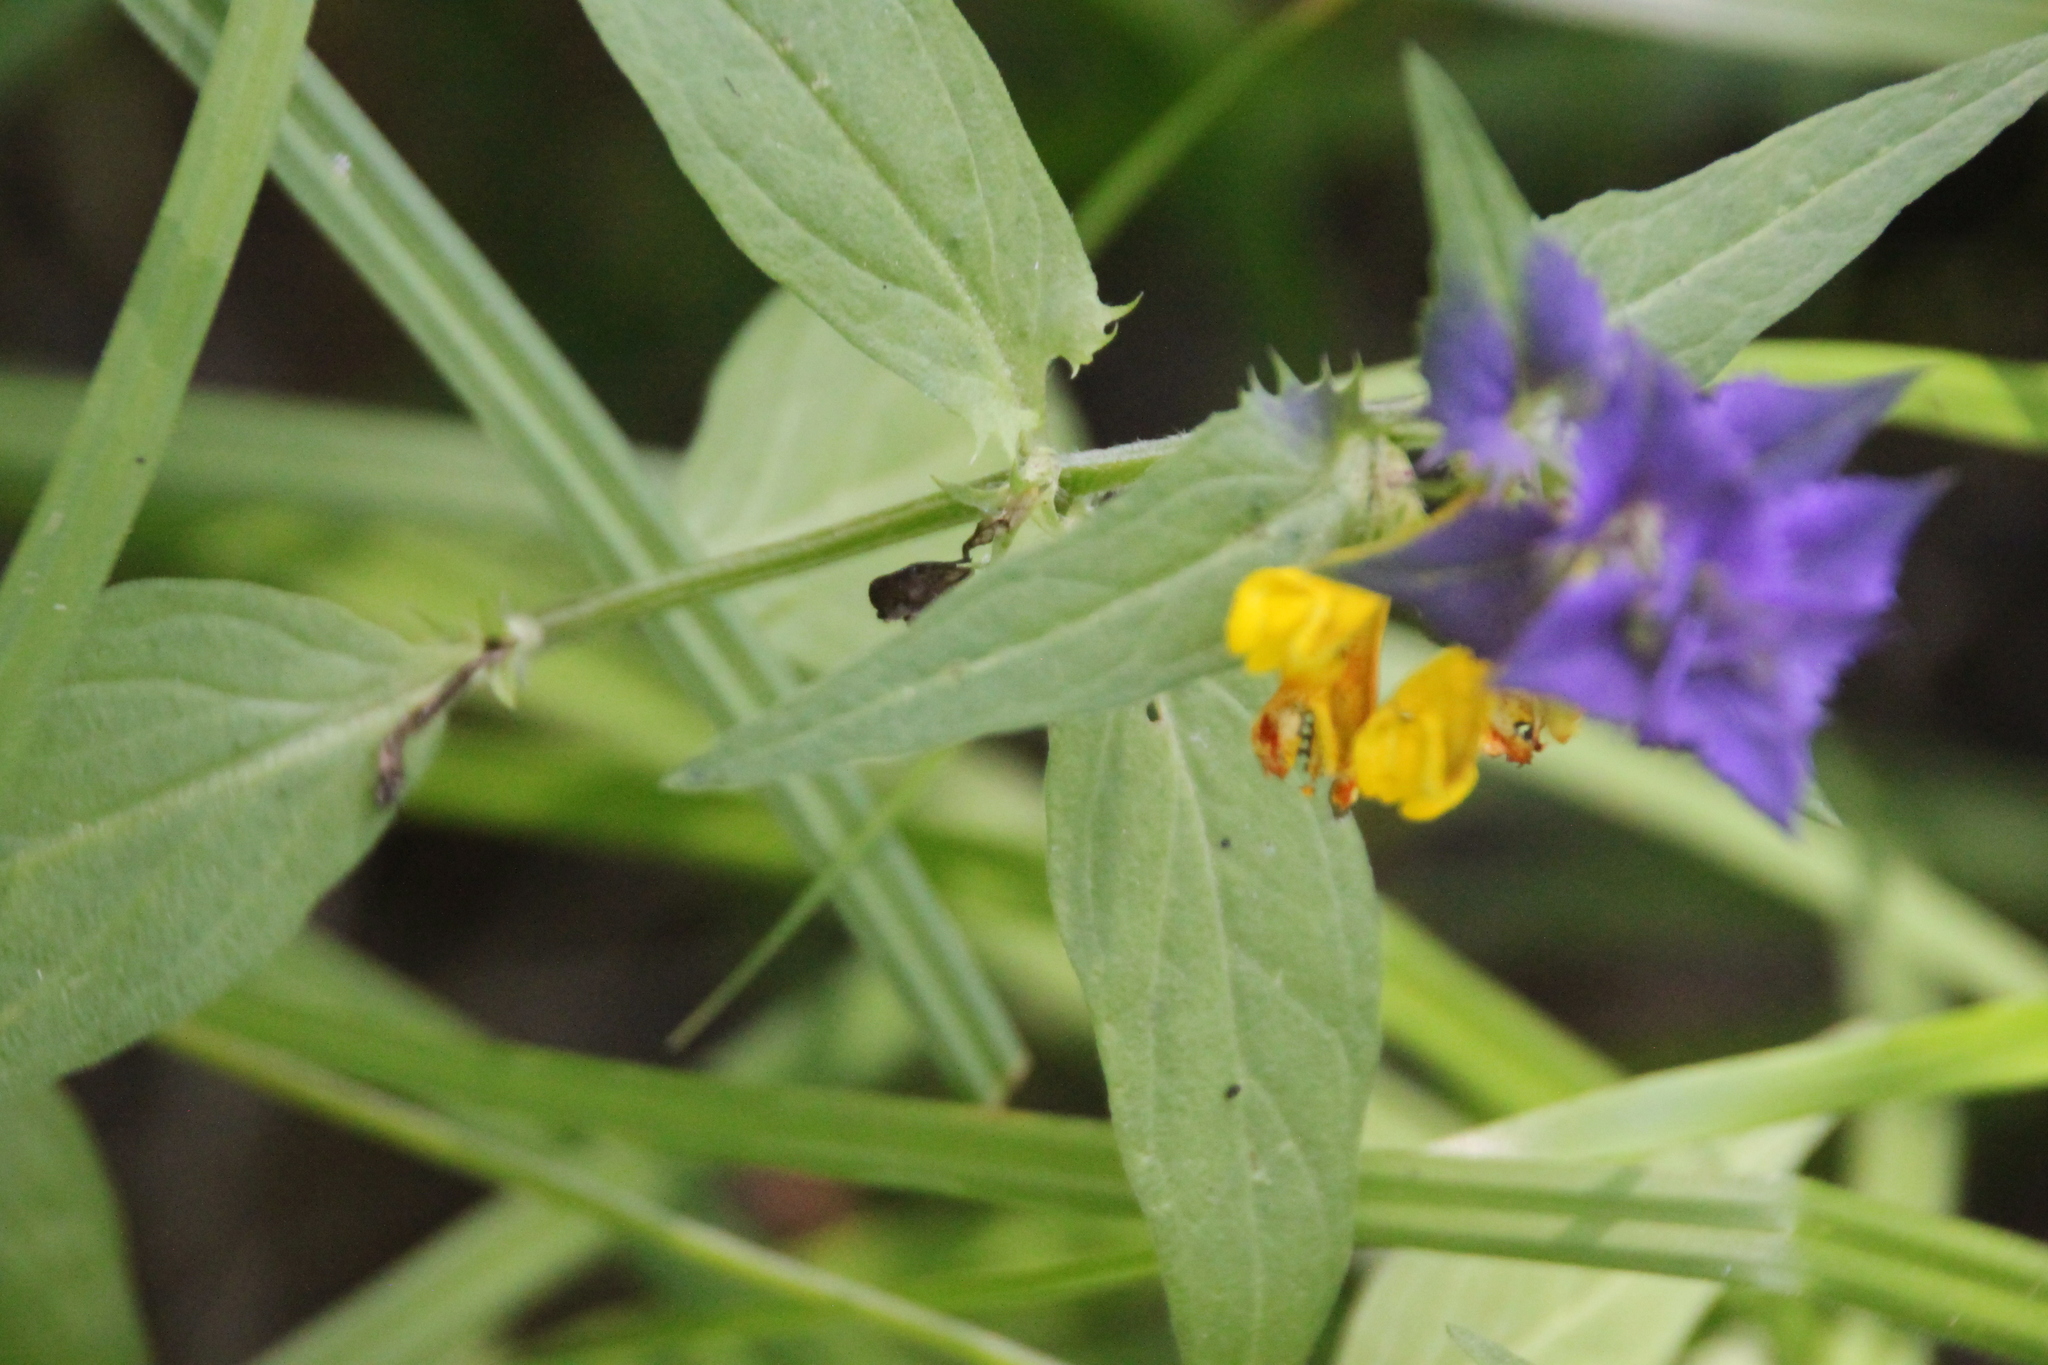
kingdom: Plantae
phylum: Tracheophyta
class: Magnoliopsida
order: Lamiales
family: Orobanchaceae
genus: Melampyrum
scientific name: Melampyrum nemorosum
